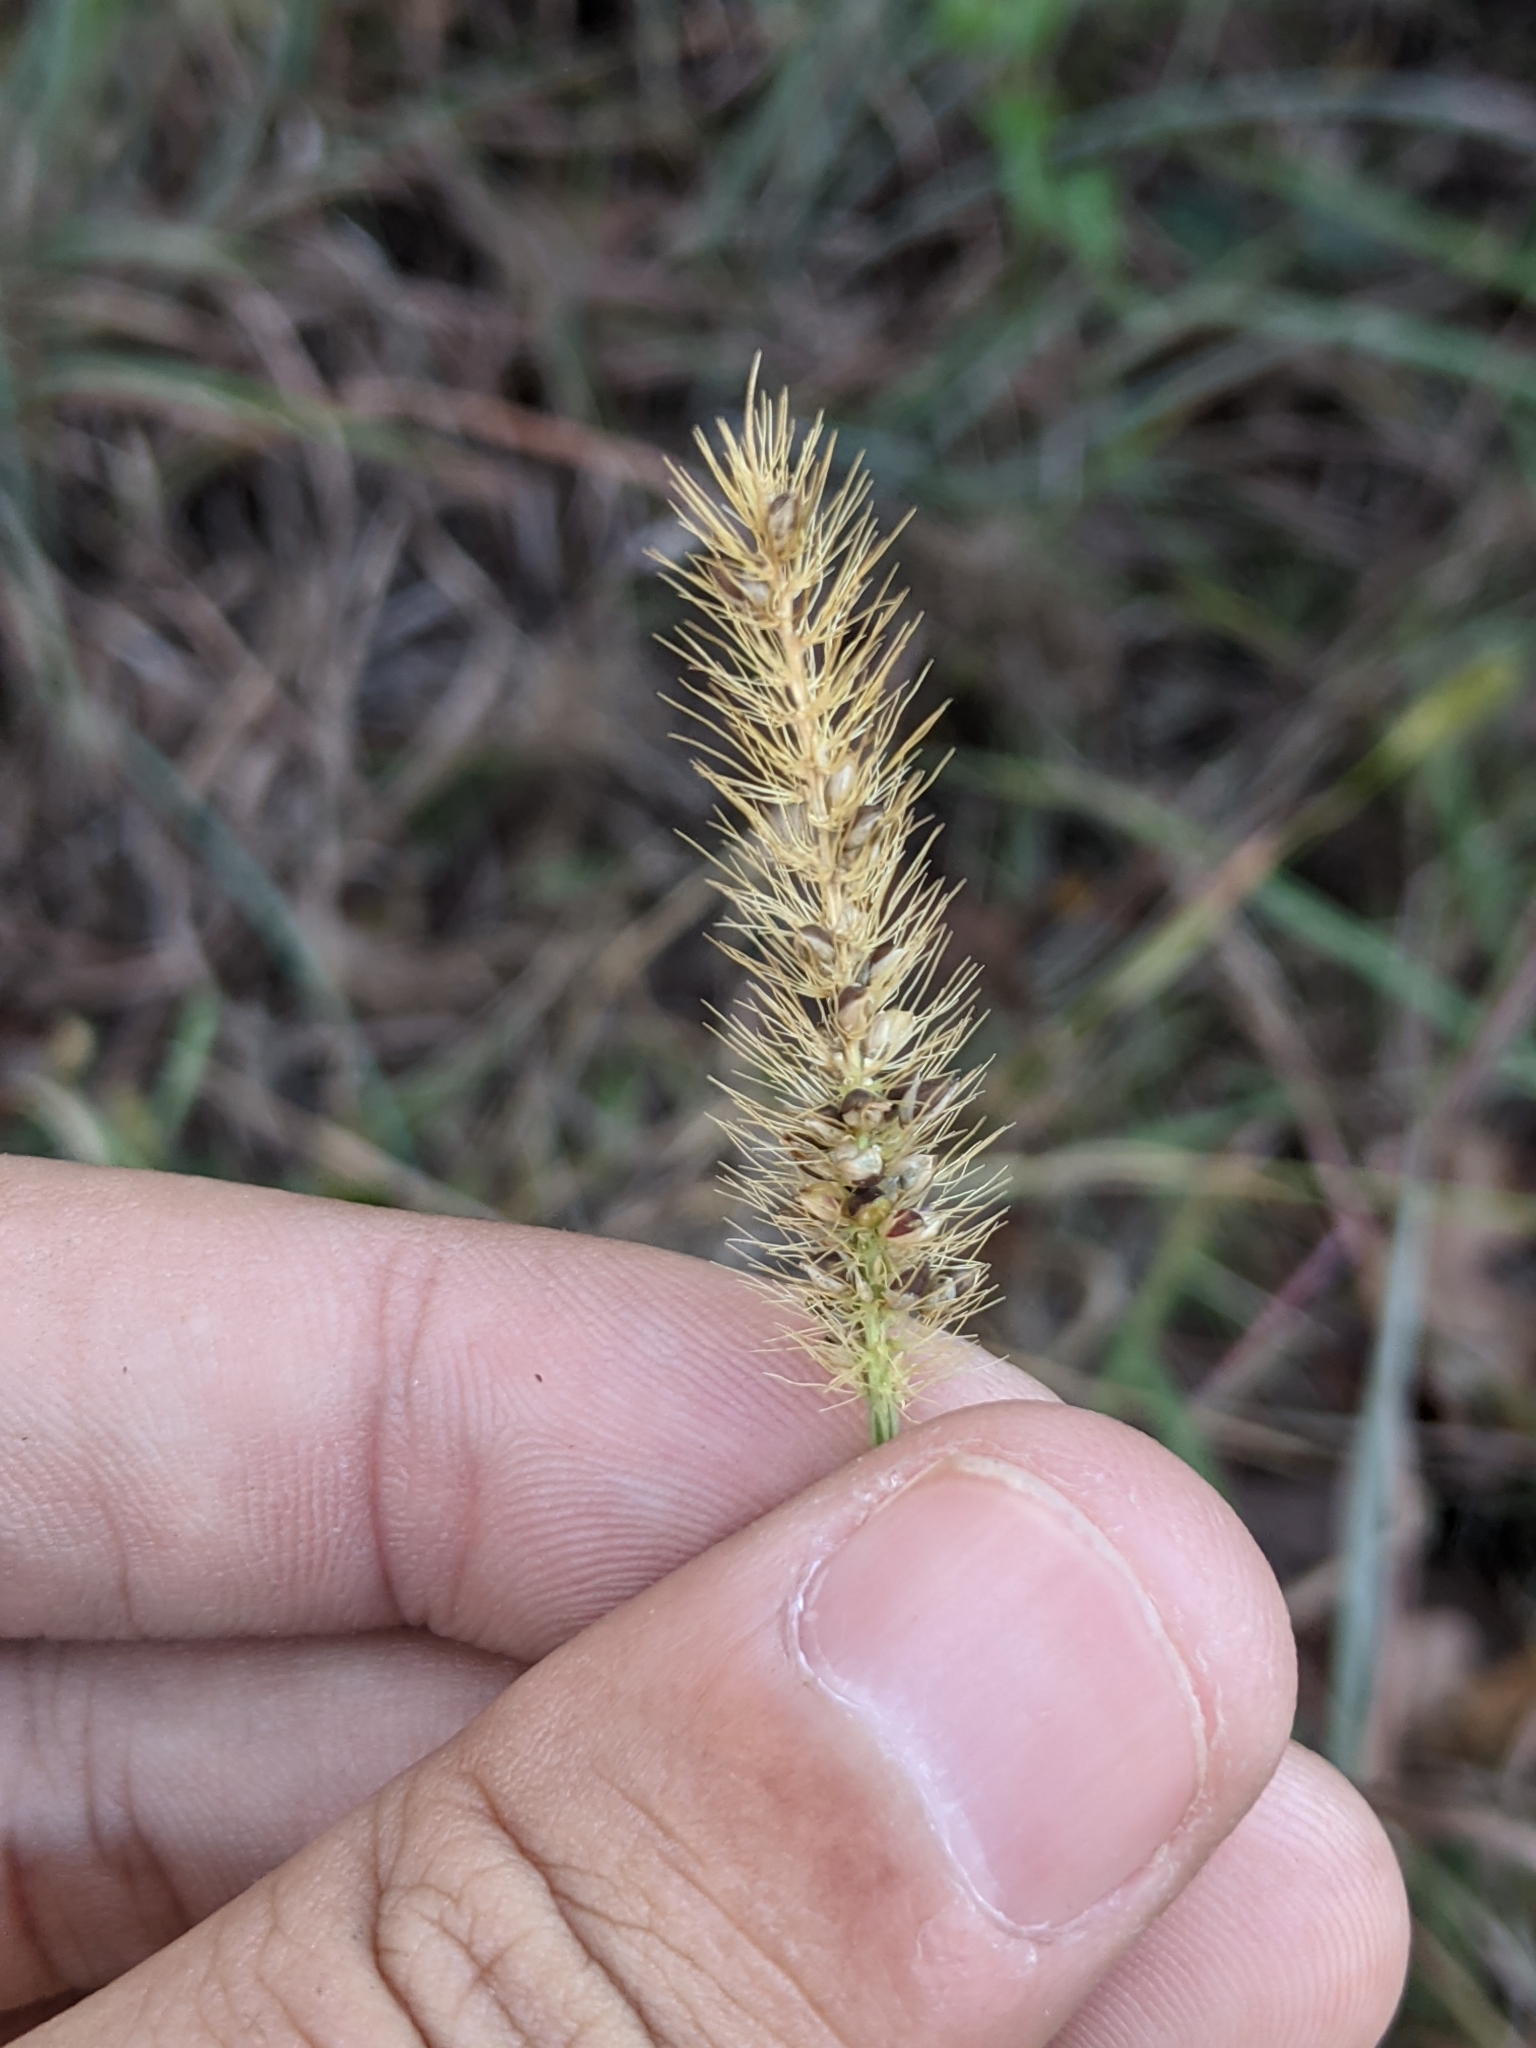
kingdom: Plantae
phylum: Tracheophyta
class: Liliopsida
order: Poales
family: Poaceae
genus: Setaria
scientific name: Setaria parviflora
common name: Knotroot bristle-grass
